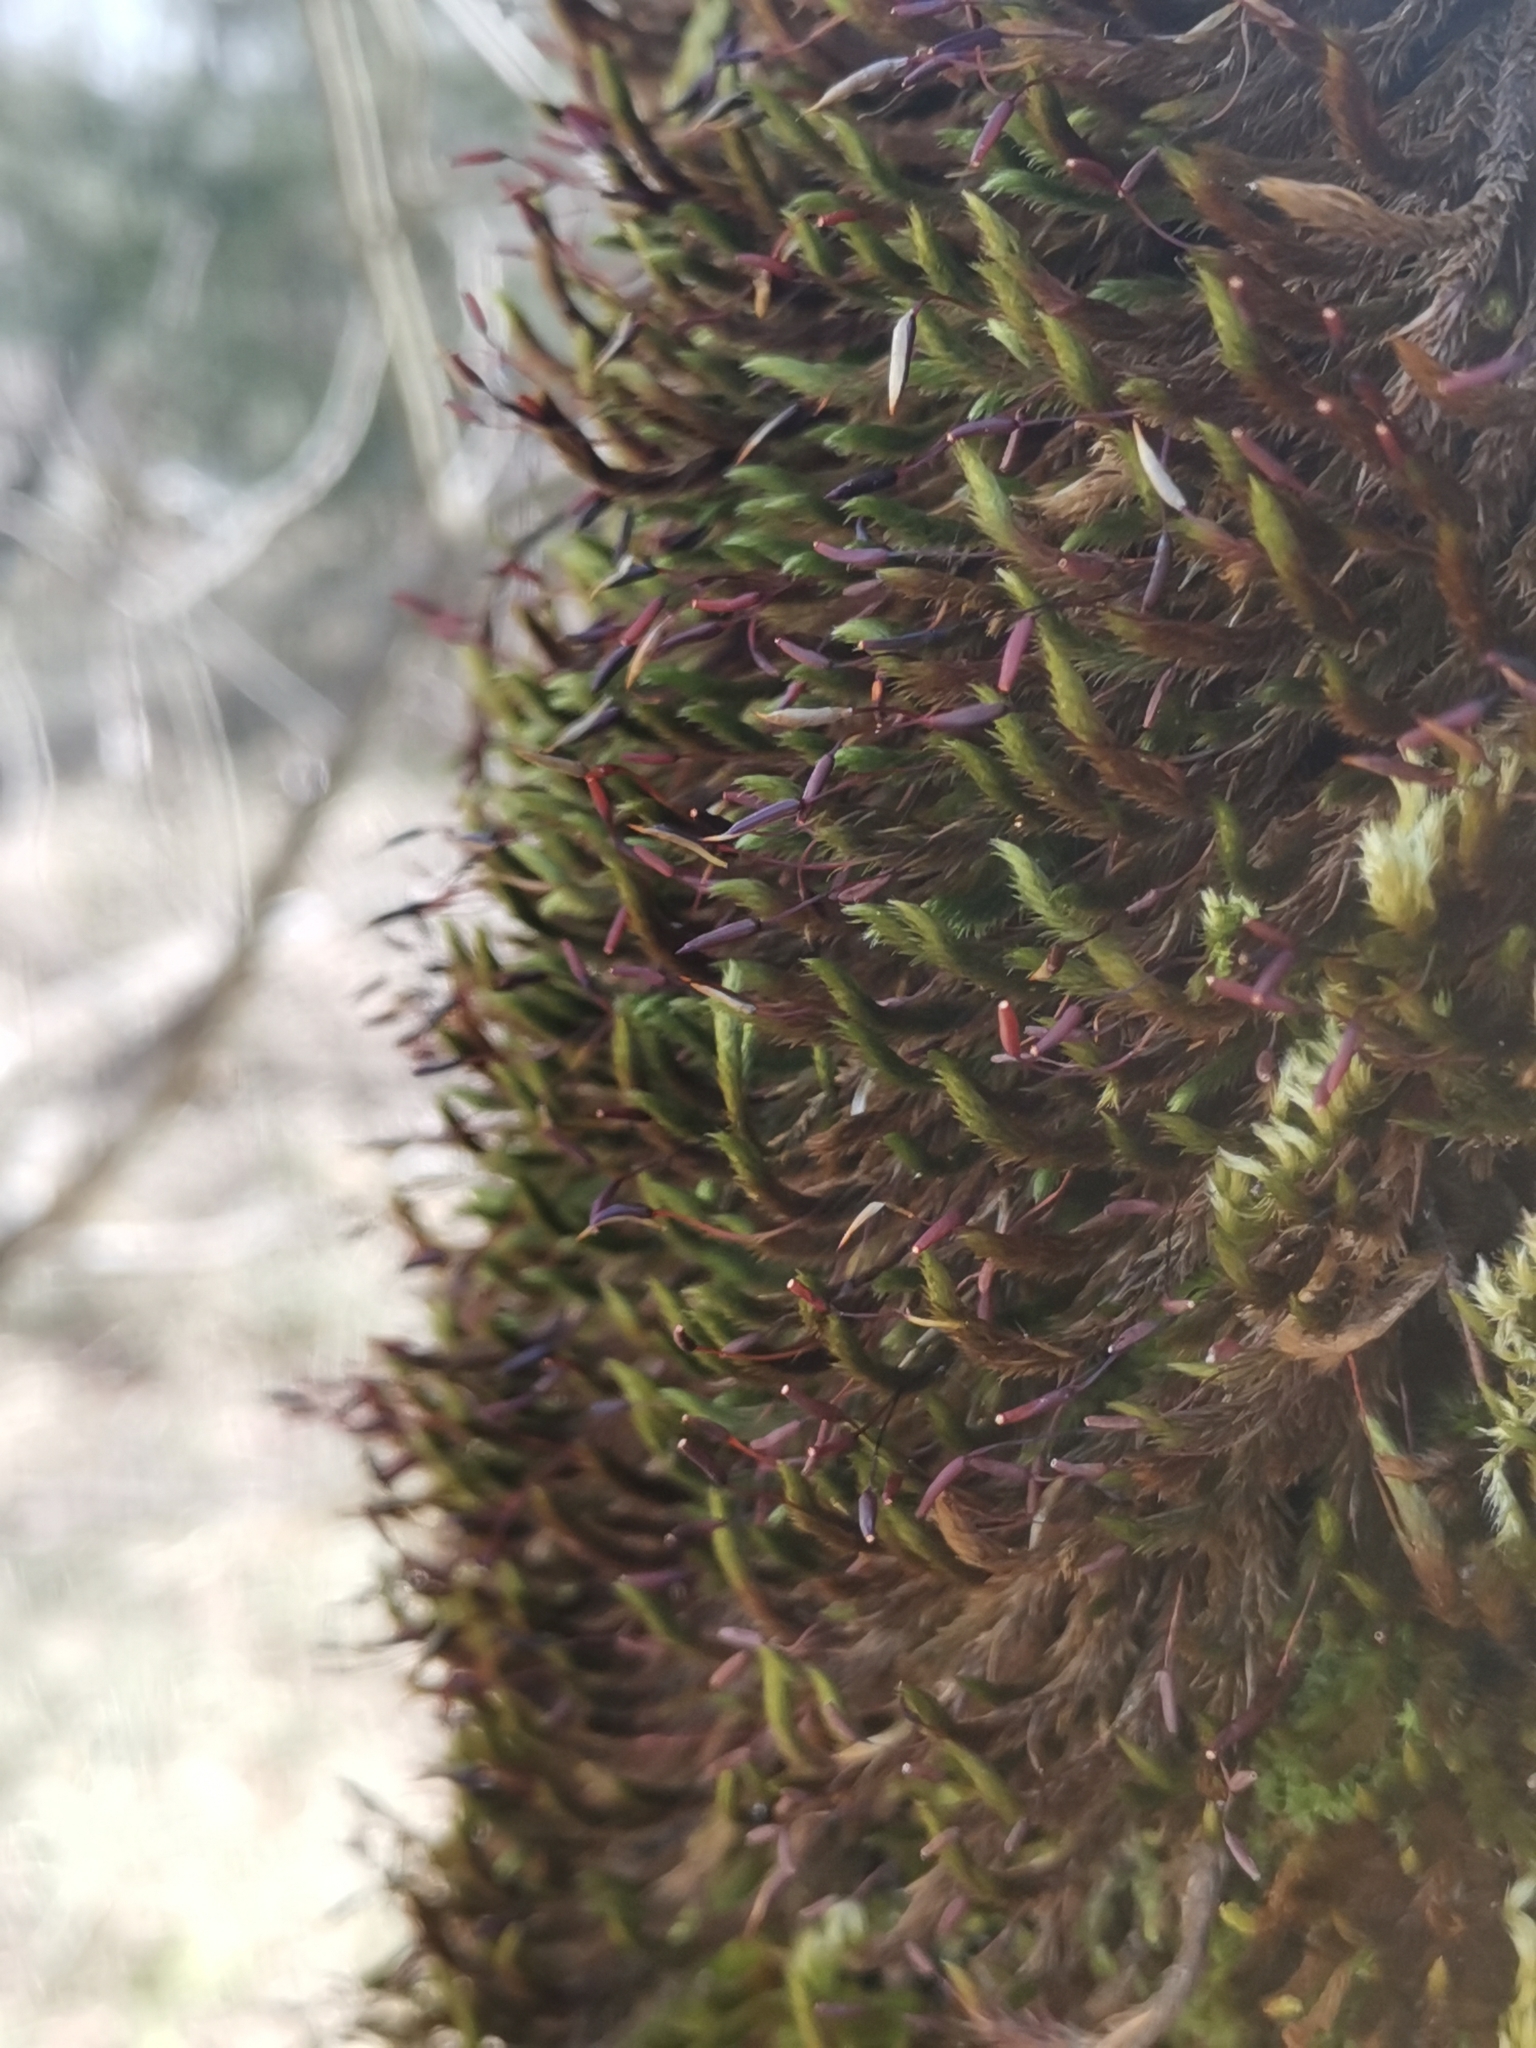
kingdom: Plantae
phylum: Bryophyta
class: Bryopsida
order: Hypnales
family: Leucodontaceae
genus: Leucodon
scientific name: Leucodon sciuroides
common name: Squirrel-tail moss
